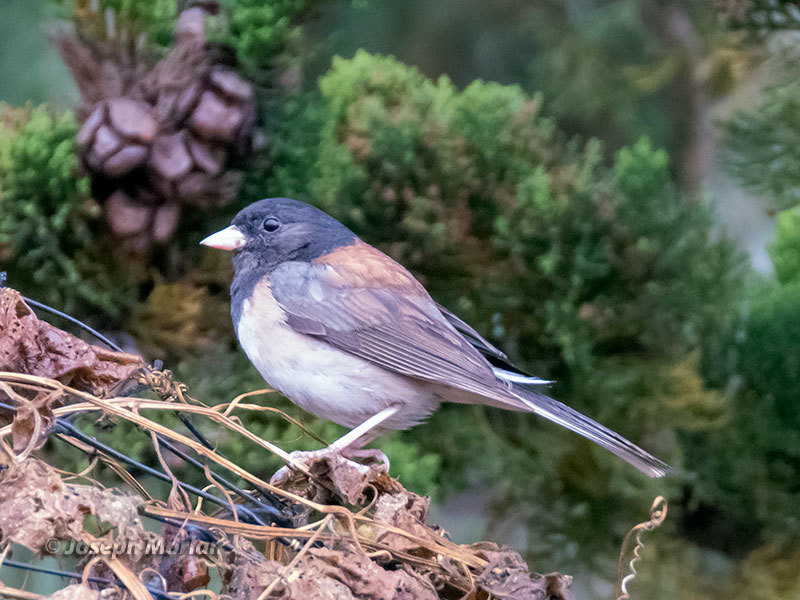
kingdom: Animalia
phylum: Chordata
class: Aves
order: Passeriformes
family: Passerellidae
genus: Junco
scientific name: Junco hyemalis
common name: Dark-eyed junco
